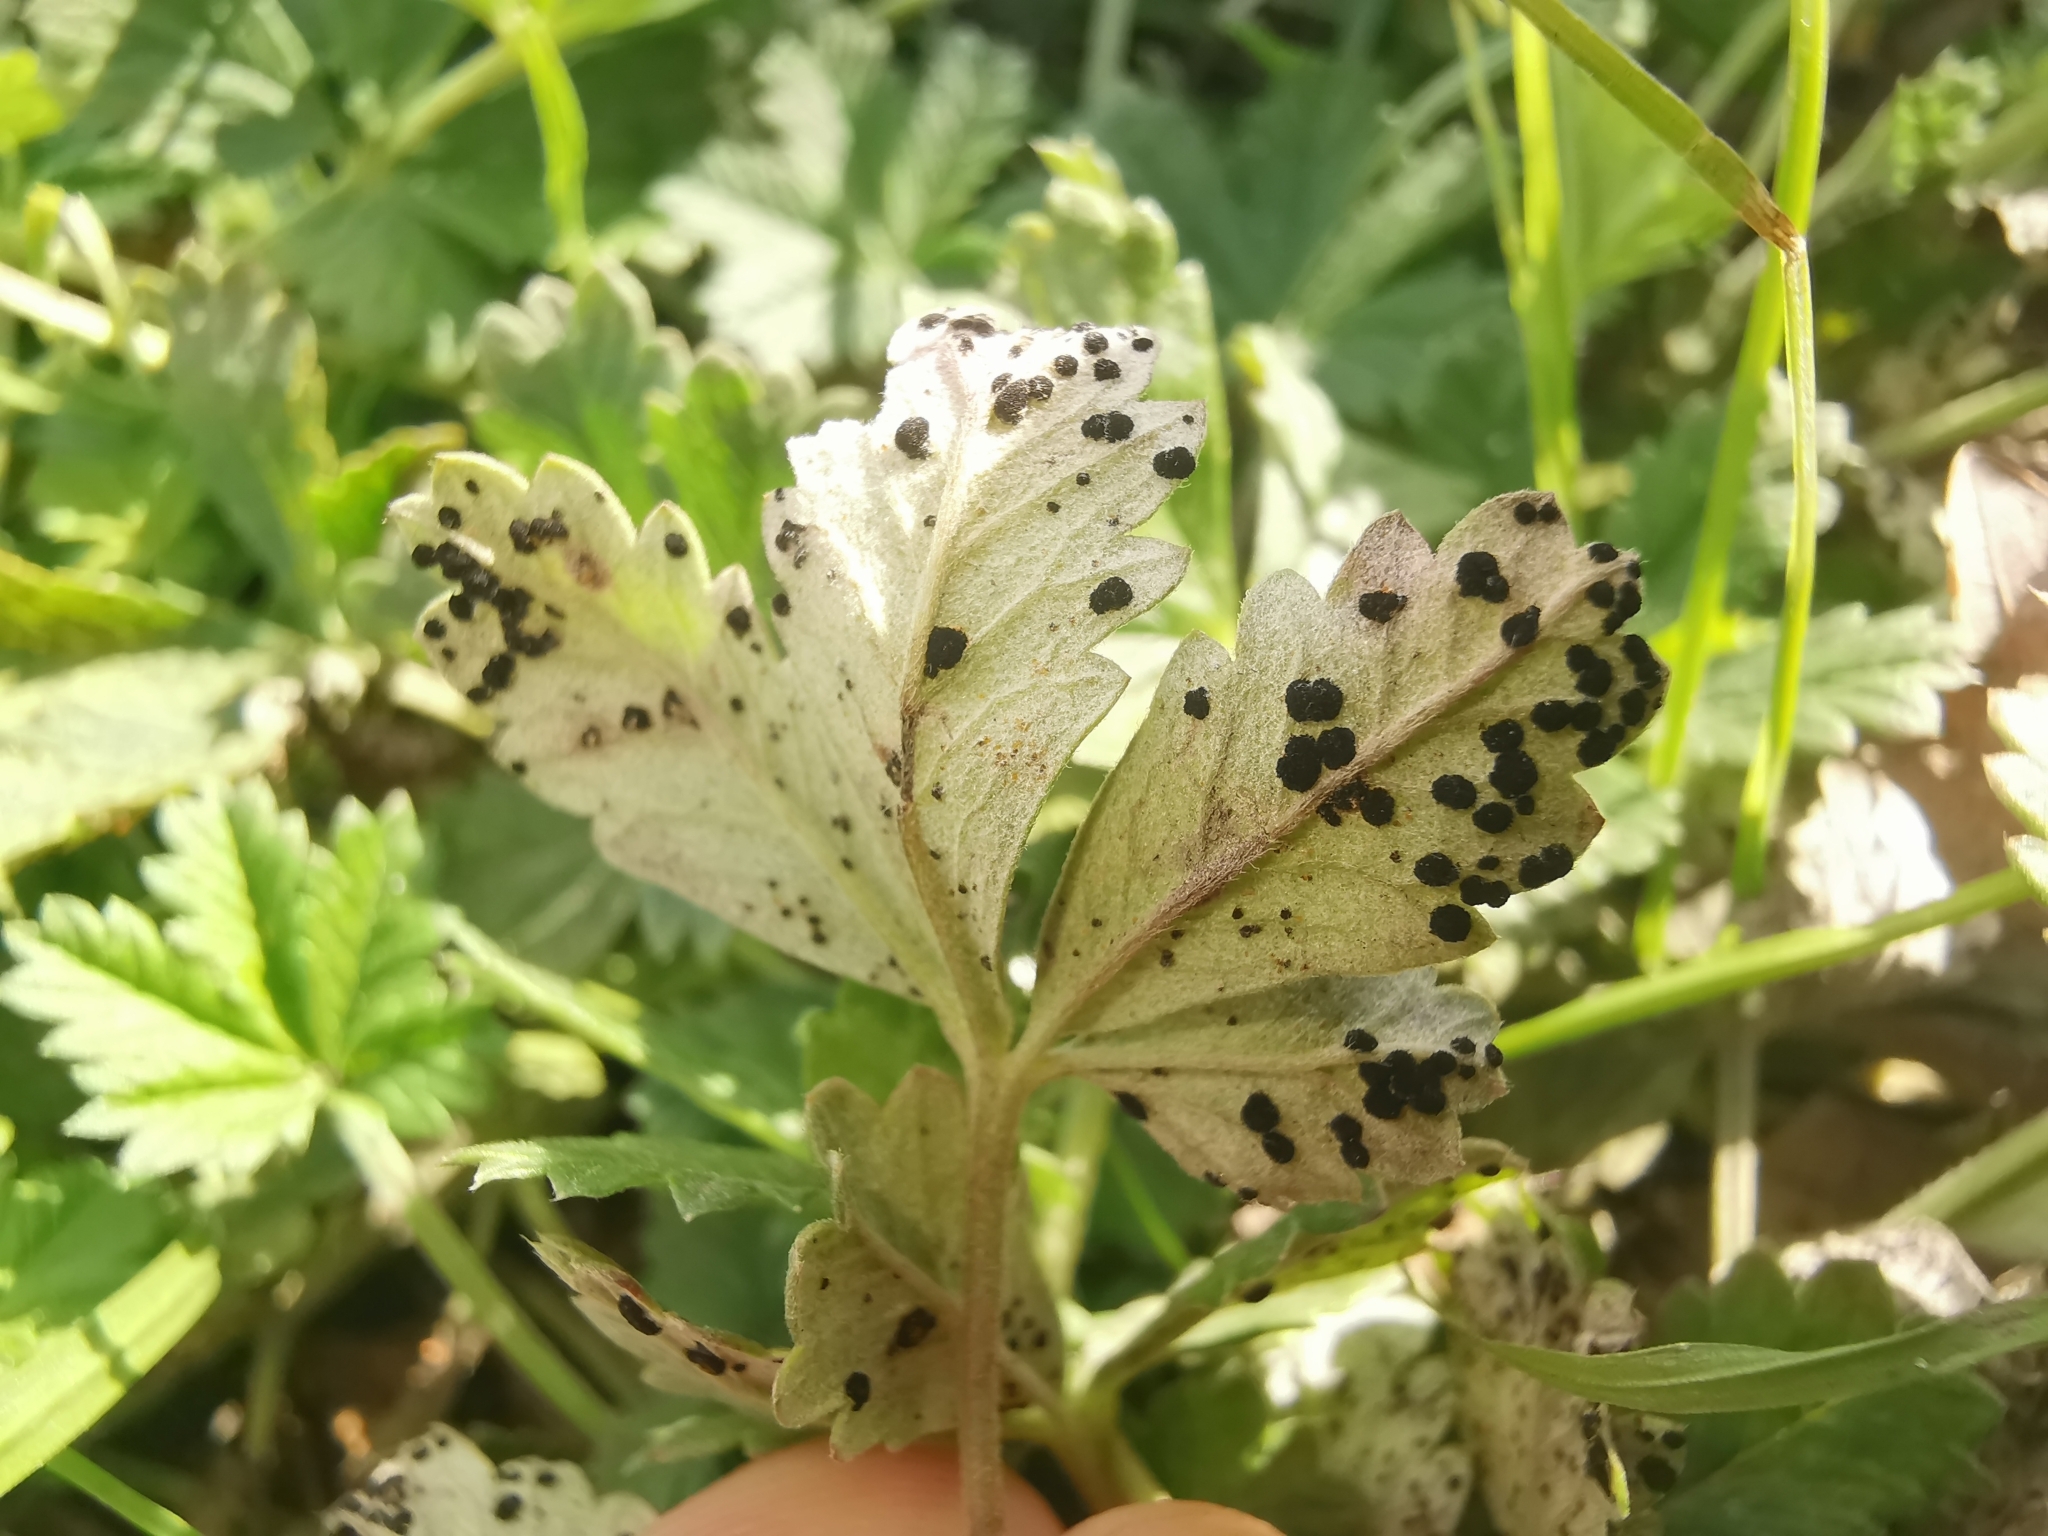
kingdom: Fungi
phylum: Basidiomycota
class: Pucciniomycetes
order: Pucciniales
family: Phragmidiaceae
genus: Phragmidium
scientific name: Phragmidium potentillae
